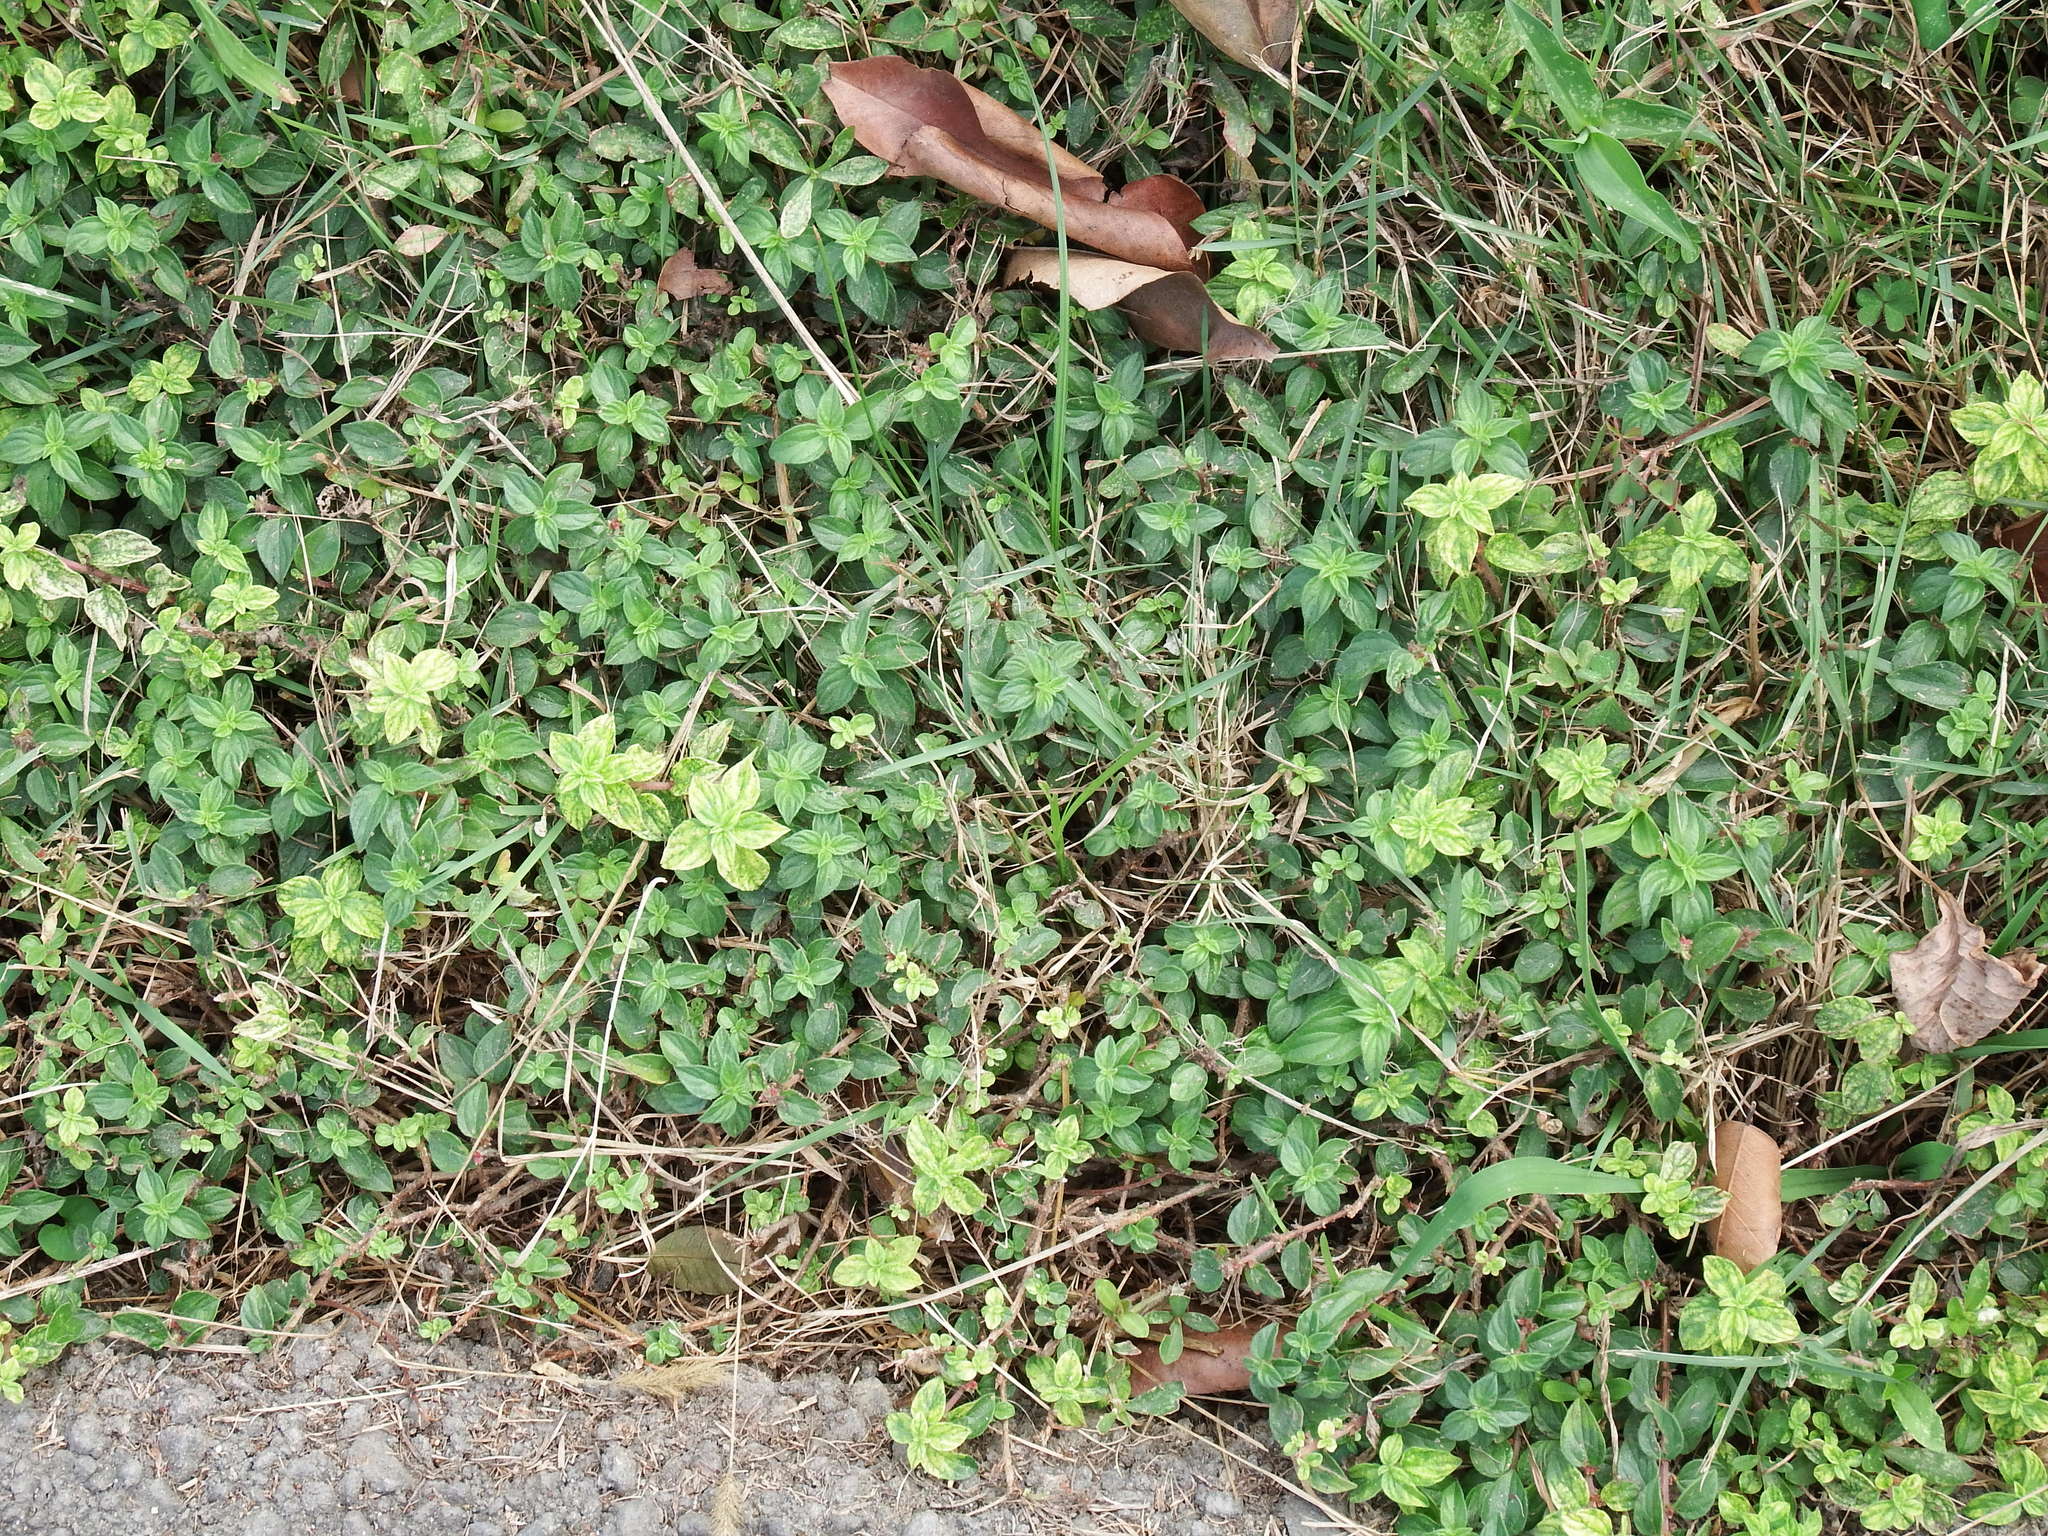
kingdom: Plantae
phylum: Tracheophyta
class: Magnoliopsida
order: Rosales
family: Urticaceae
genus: Pouzolzia
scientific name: Pouzolzia zeylanica
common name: Graceful pouzolzsbush
